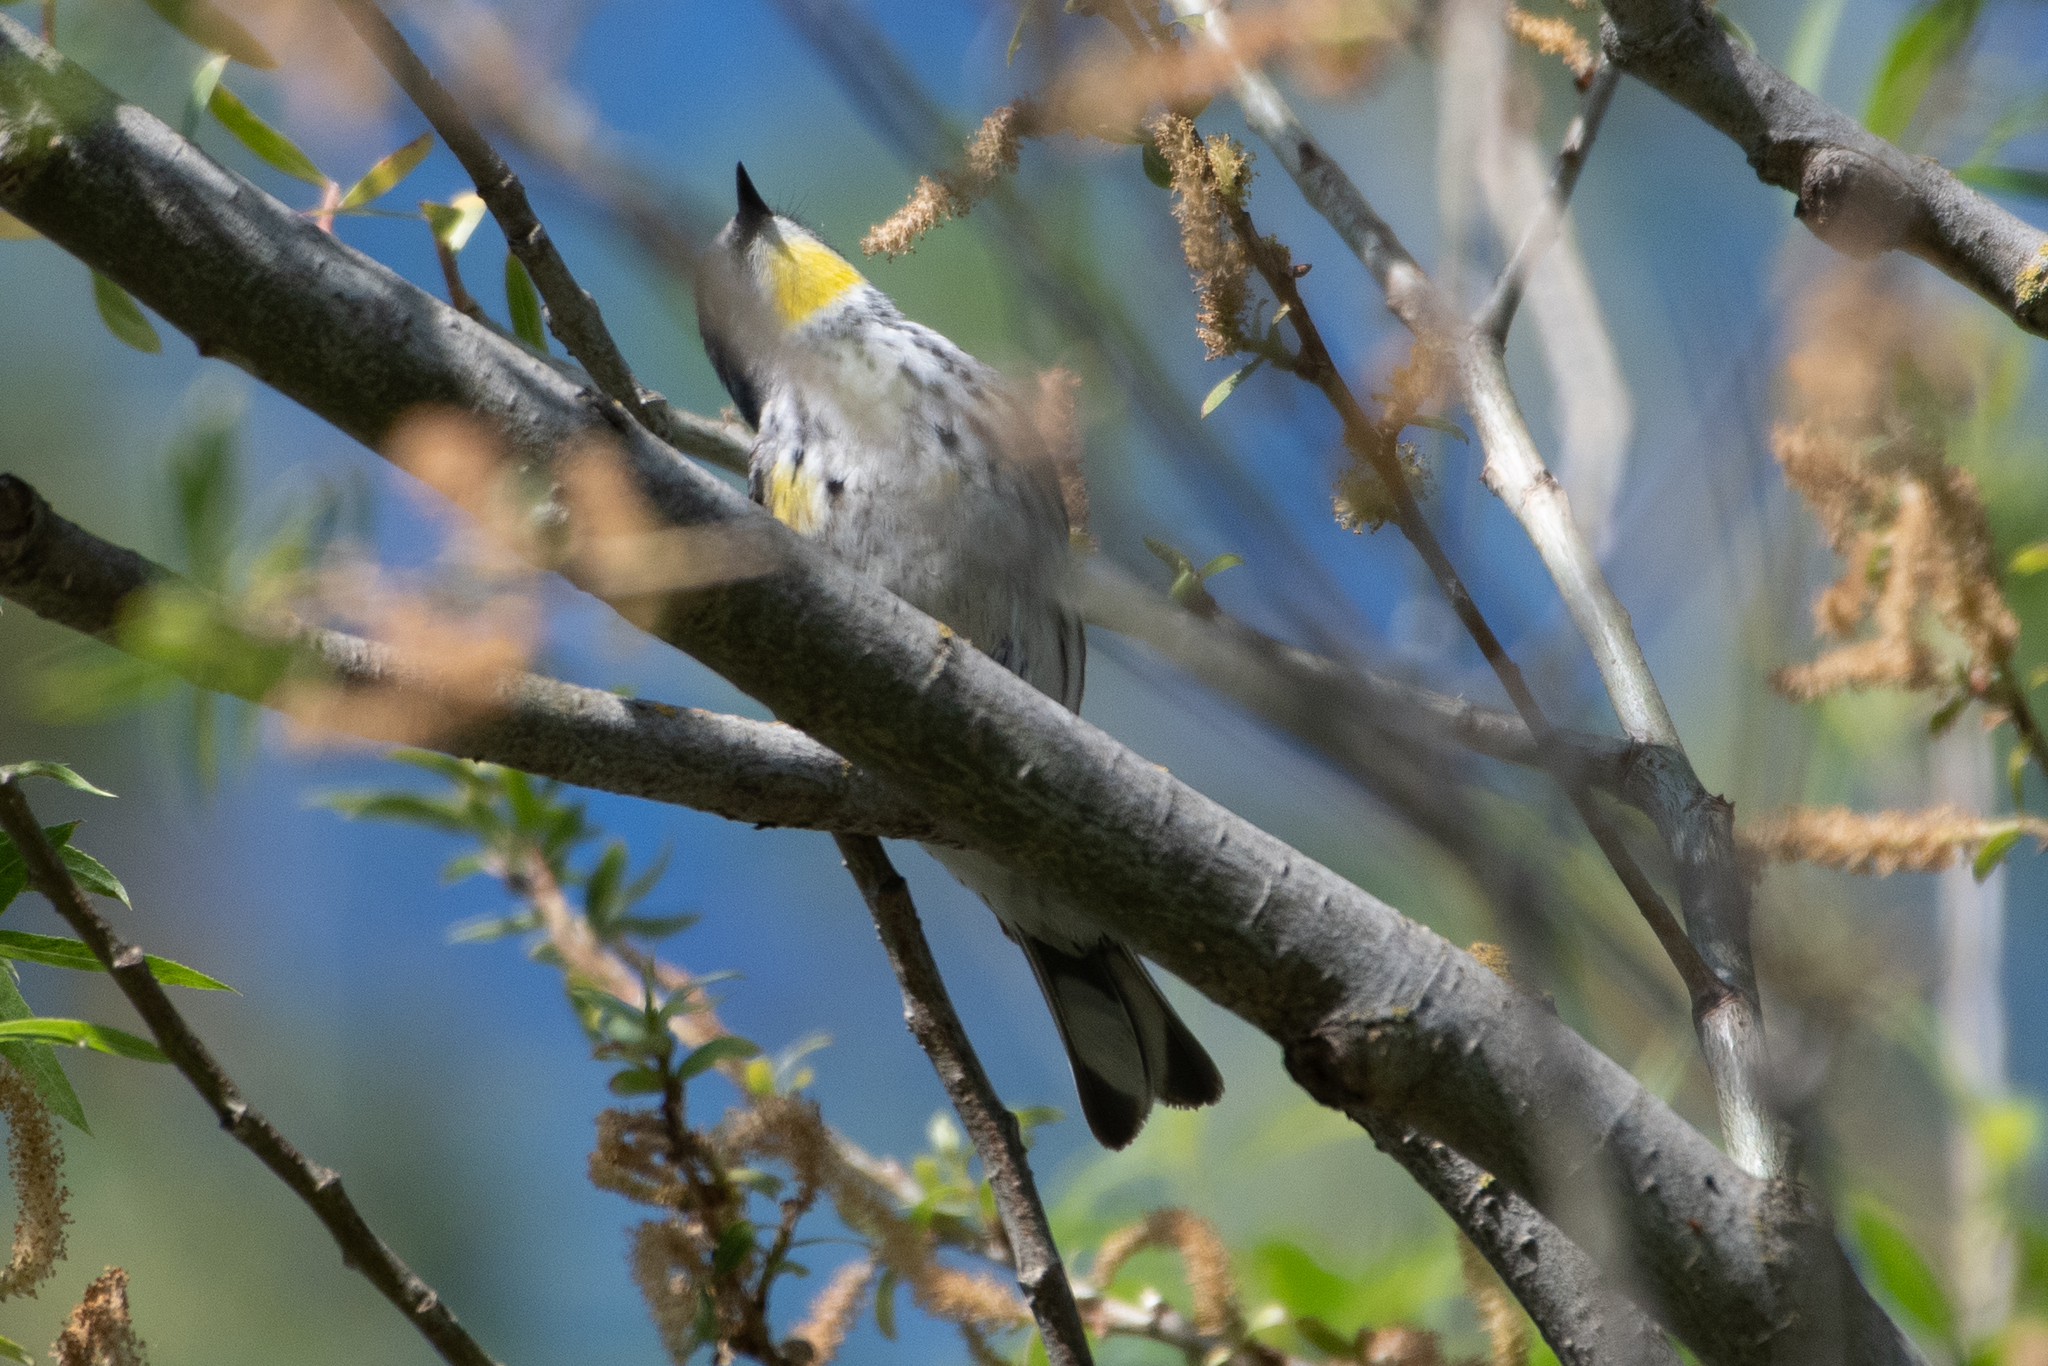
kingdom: Animalia
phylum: Chordata
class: Aves
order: Passeriformes
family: Parulidae
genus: Setophaga
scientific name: Setophaga coronata
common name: Myrtle warbler
